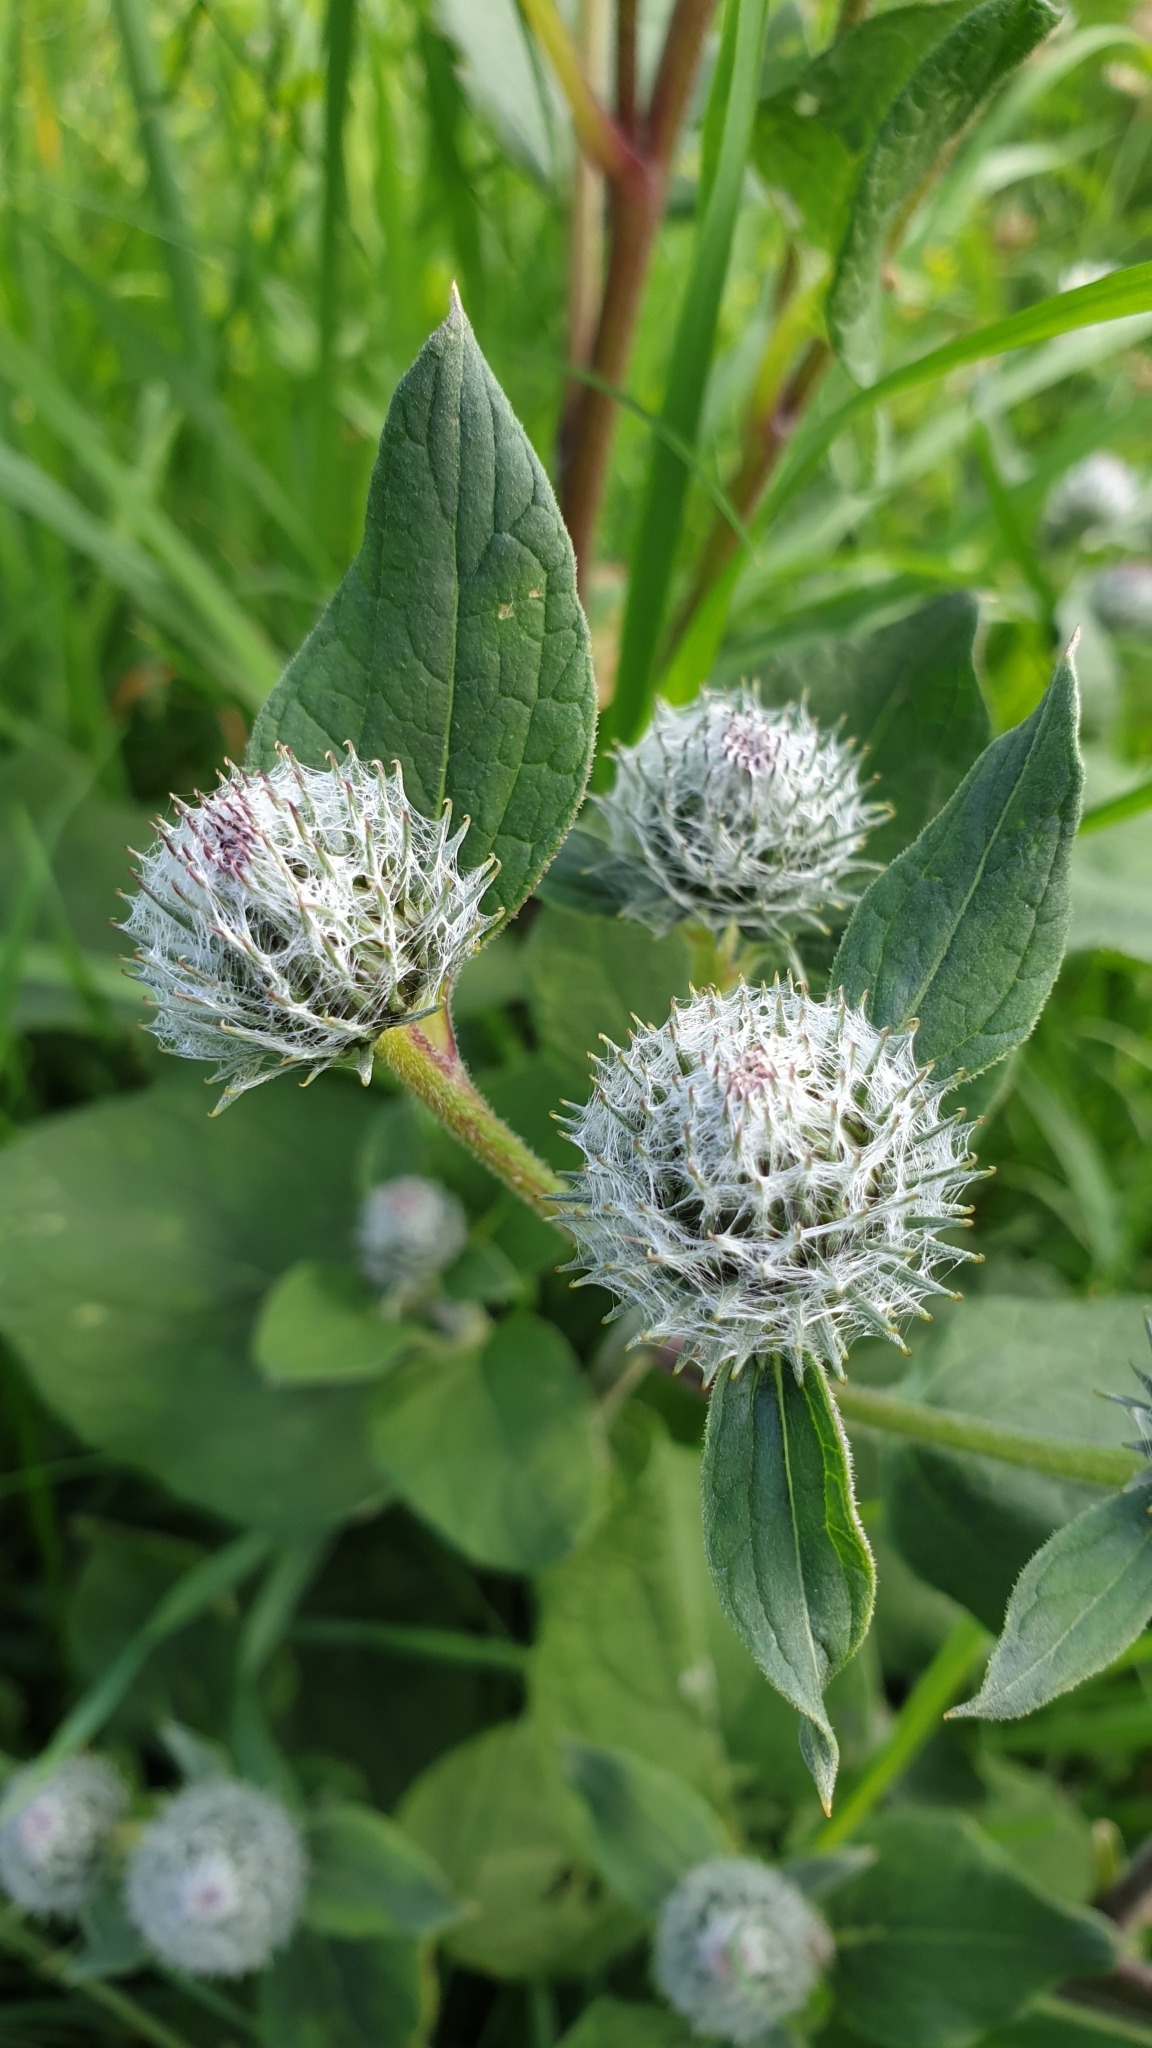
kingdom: Plantae
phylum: Tracheophyta
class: Magnoliopsida
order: Asterales
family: Asteraceae
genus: Arctium
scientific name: Arctium tomentosum
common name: Woolly burdock
